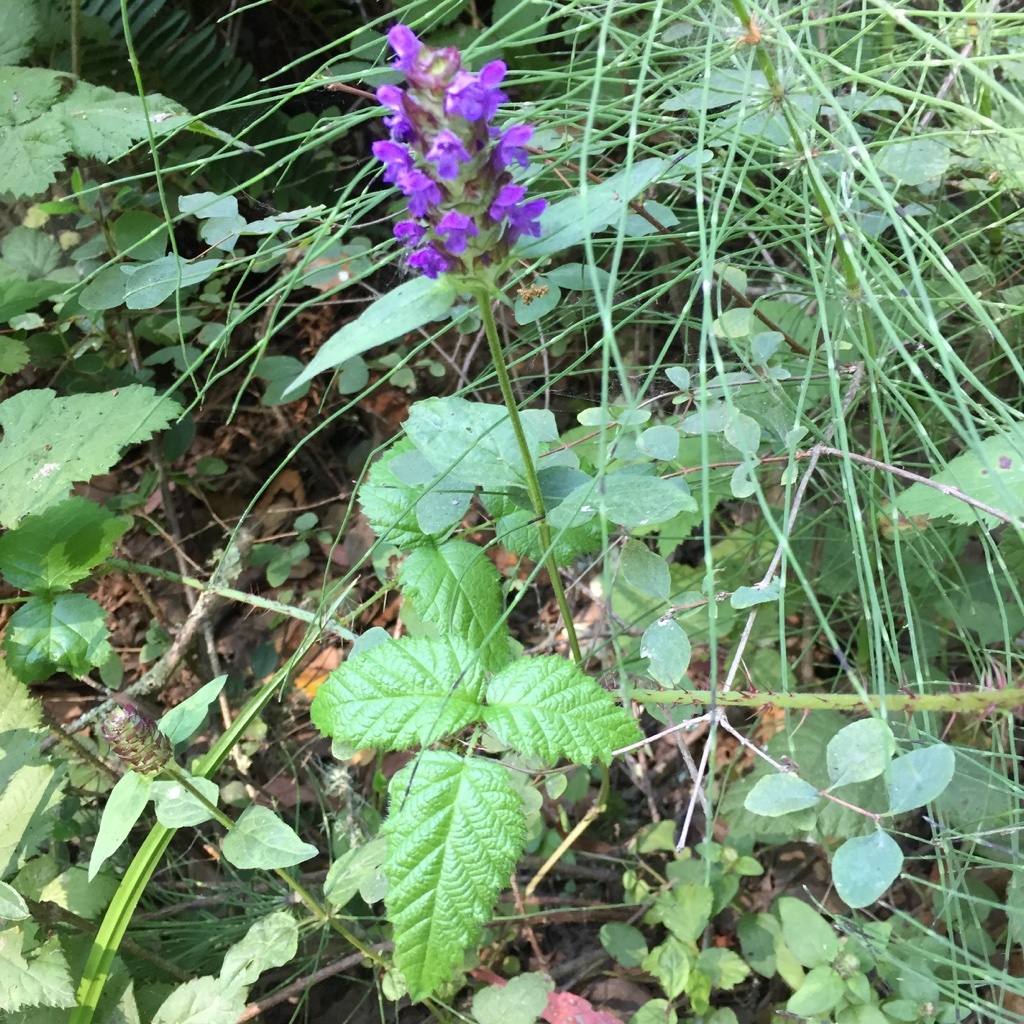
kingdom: Plantae
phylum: Tracheophyta
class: Magnoliopsida
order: Lamiales
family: Lamiaceae
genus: Prunella
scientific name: Prunella vulgaris
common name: Heal-all
